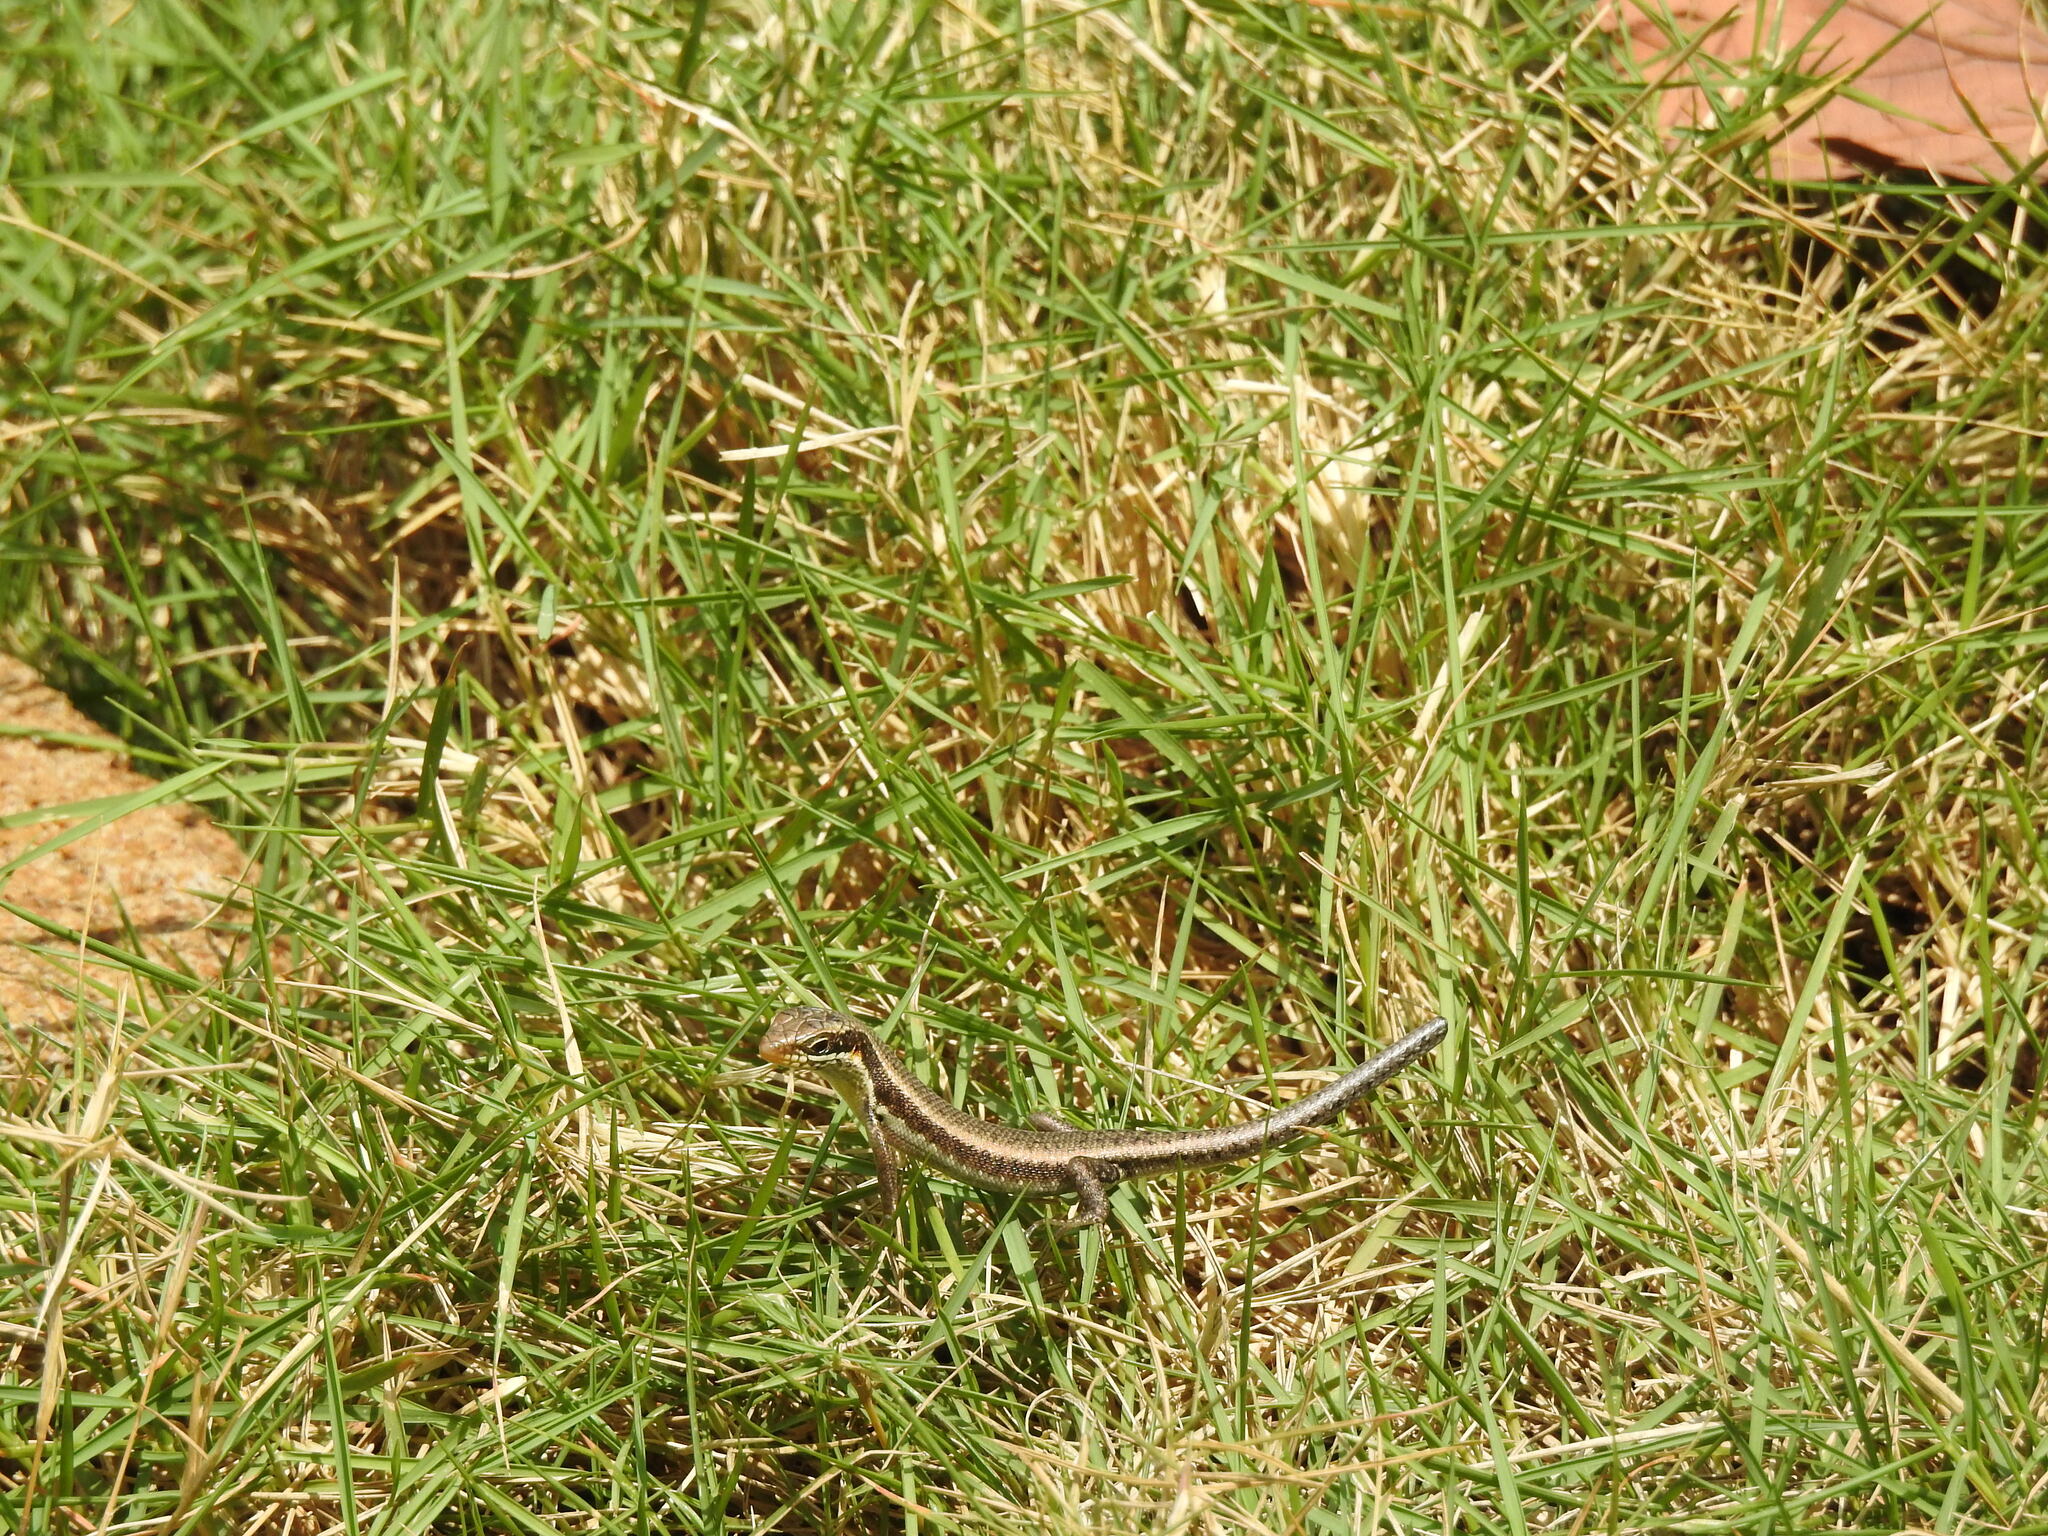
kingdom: Animalia
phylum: Chordata
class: Squamata
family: Scincidae
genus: Trachylepis
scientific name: Trachylepis maculilabris
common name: Speckle-lipped mabuya
